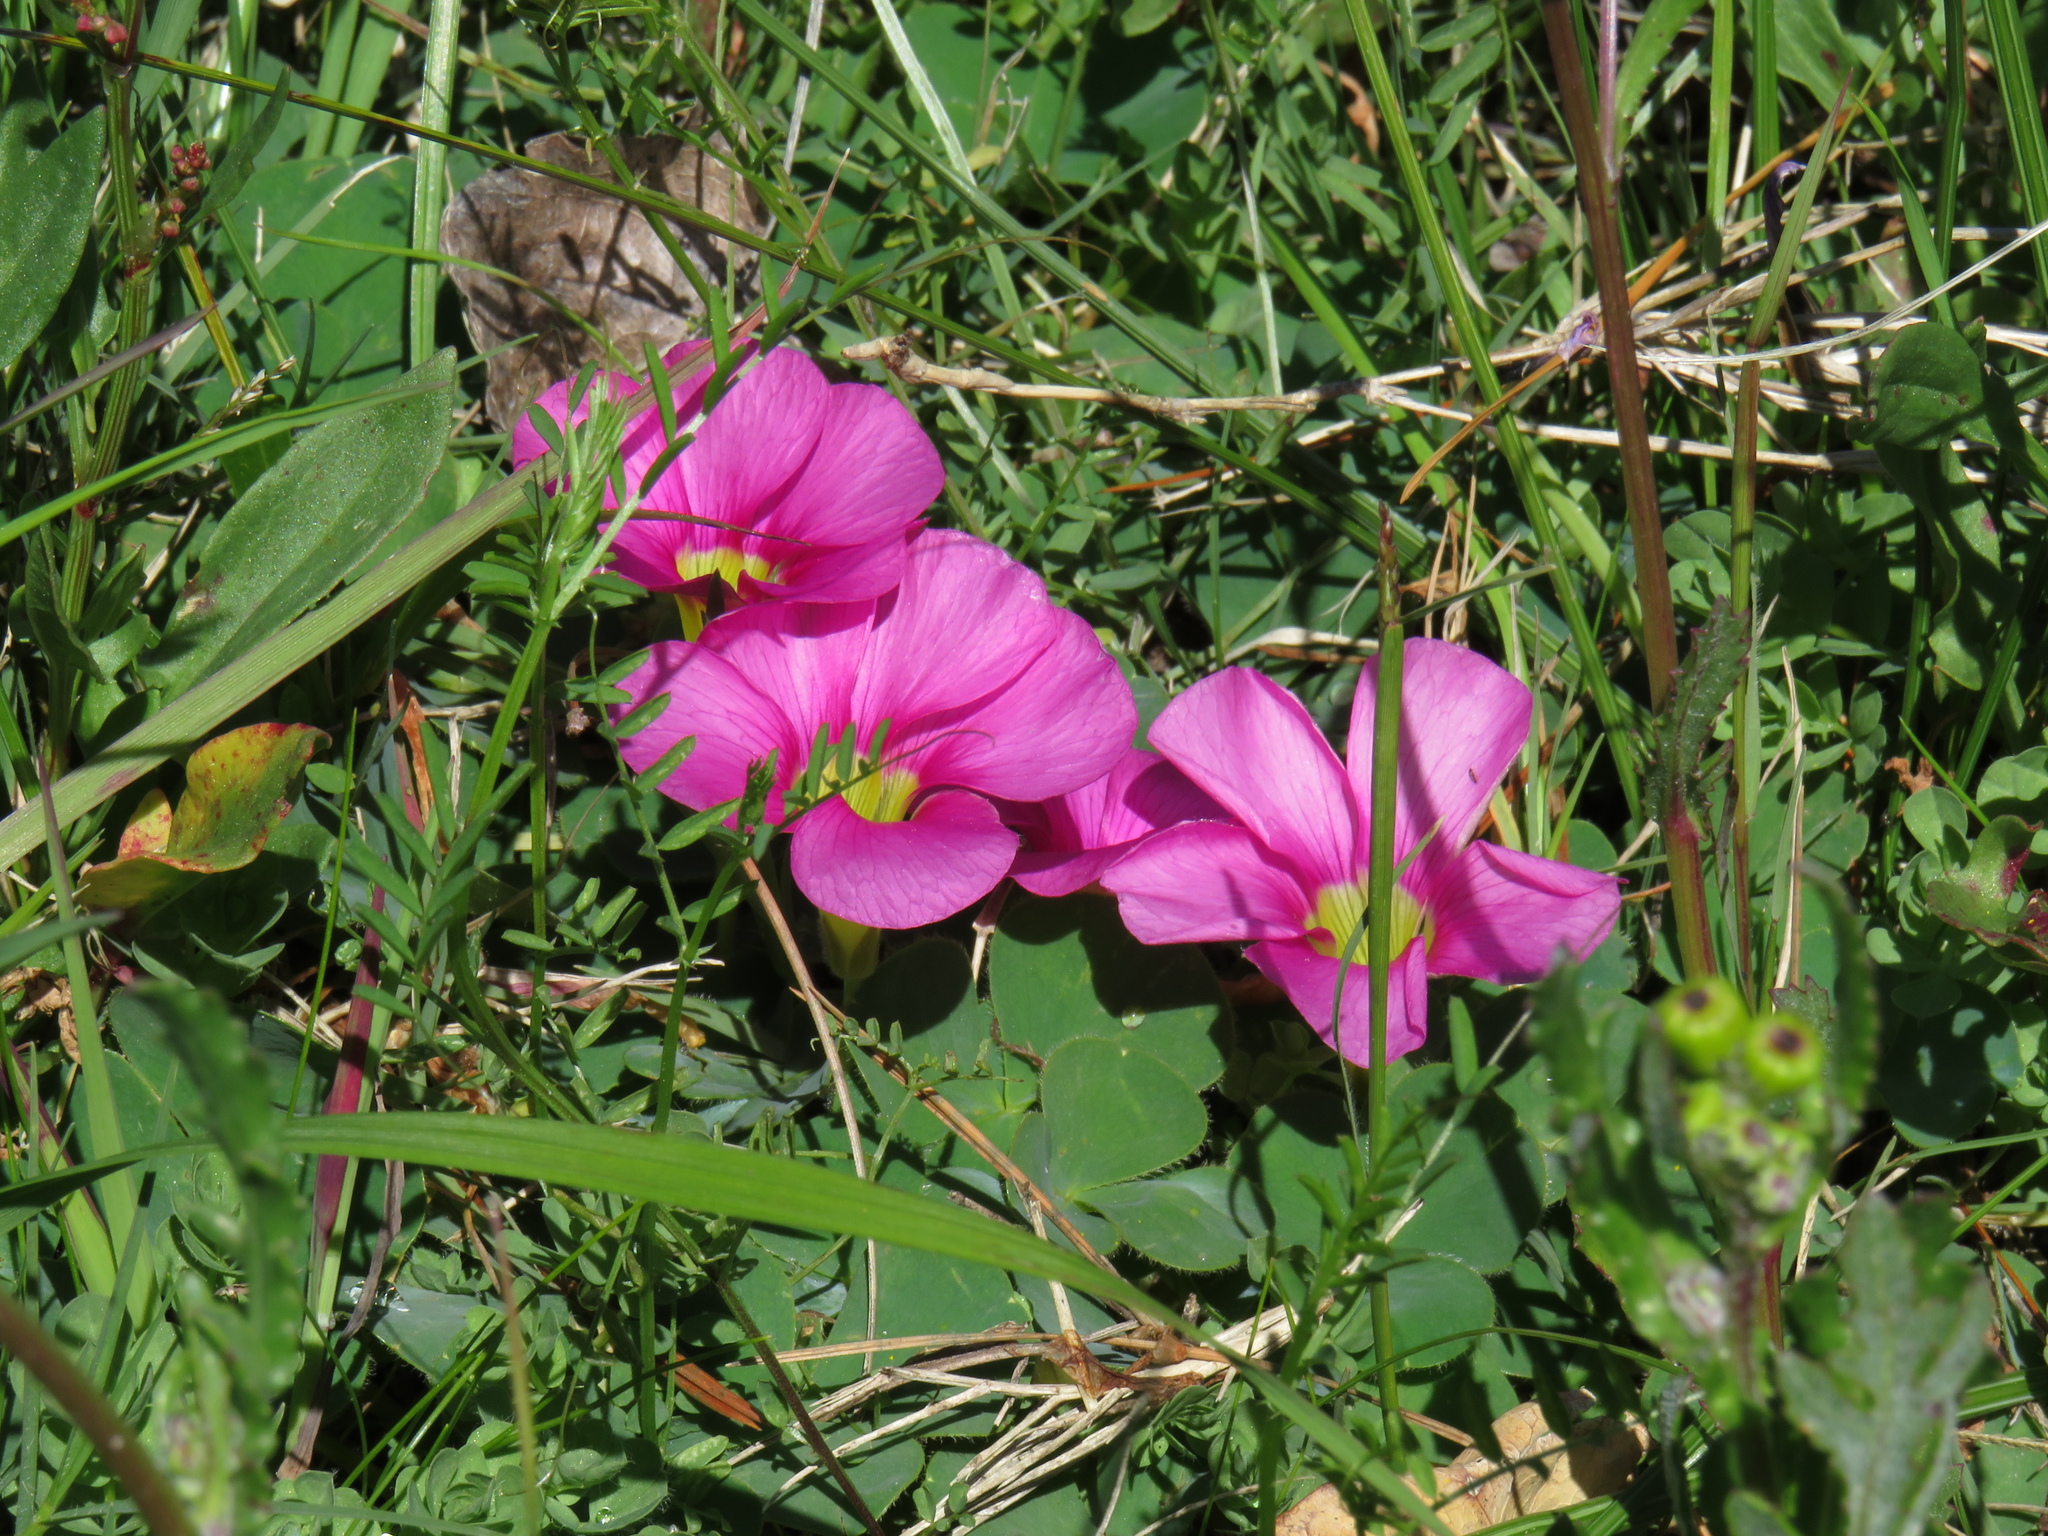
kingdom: Plantae
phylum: Tracheophyta
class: Magnoliopsida
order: Oxalidales
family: Oxalidaceae
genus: Oxalis
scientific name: Oxalis purpurea
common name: Purple woodsorrel
